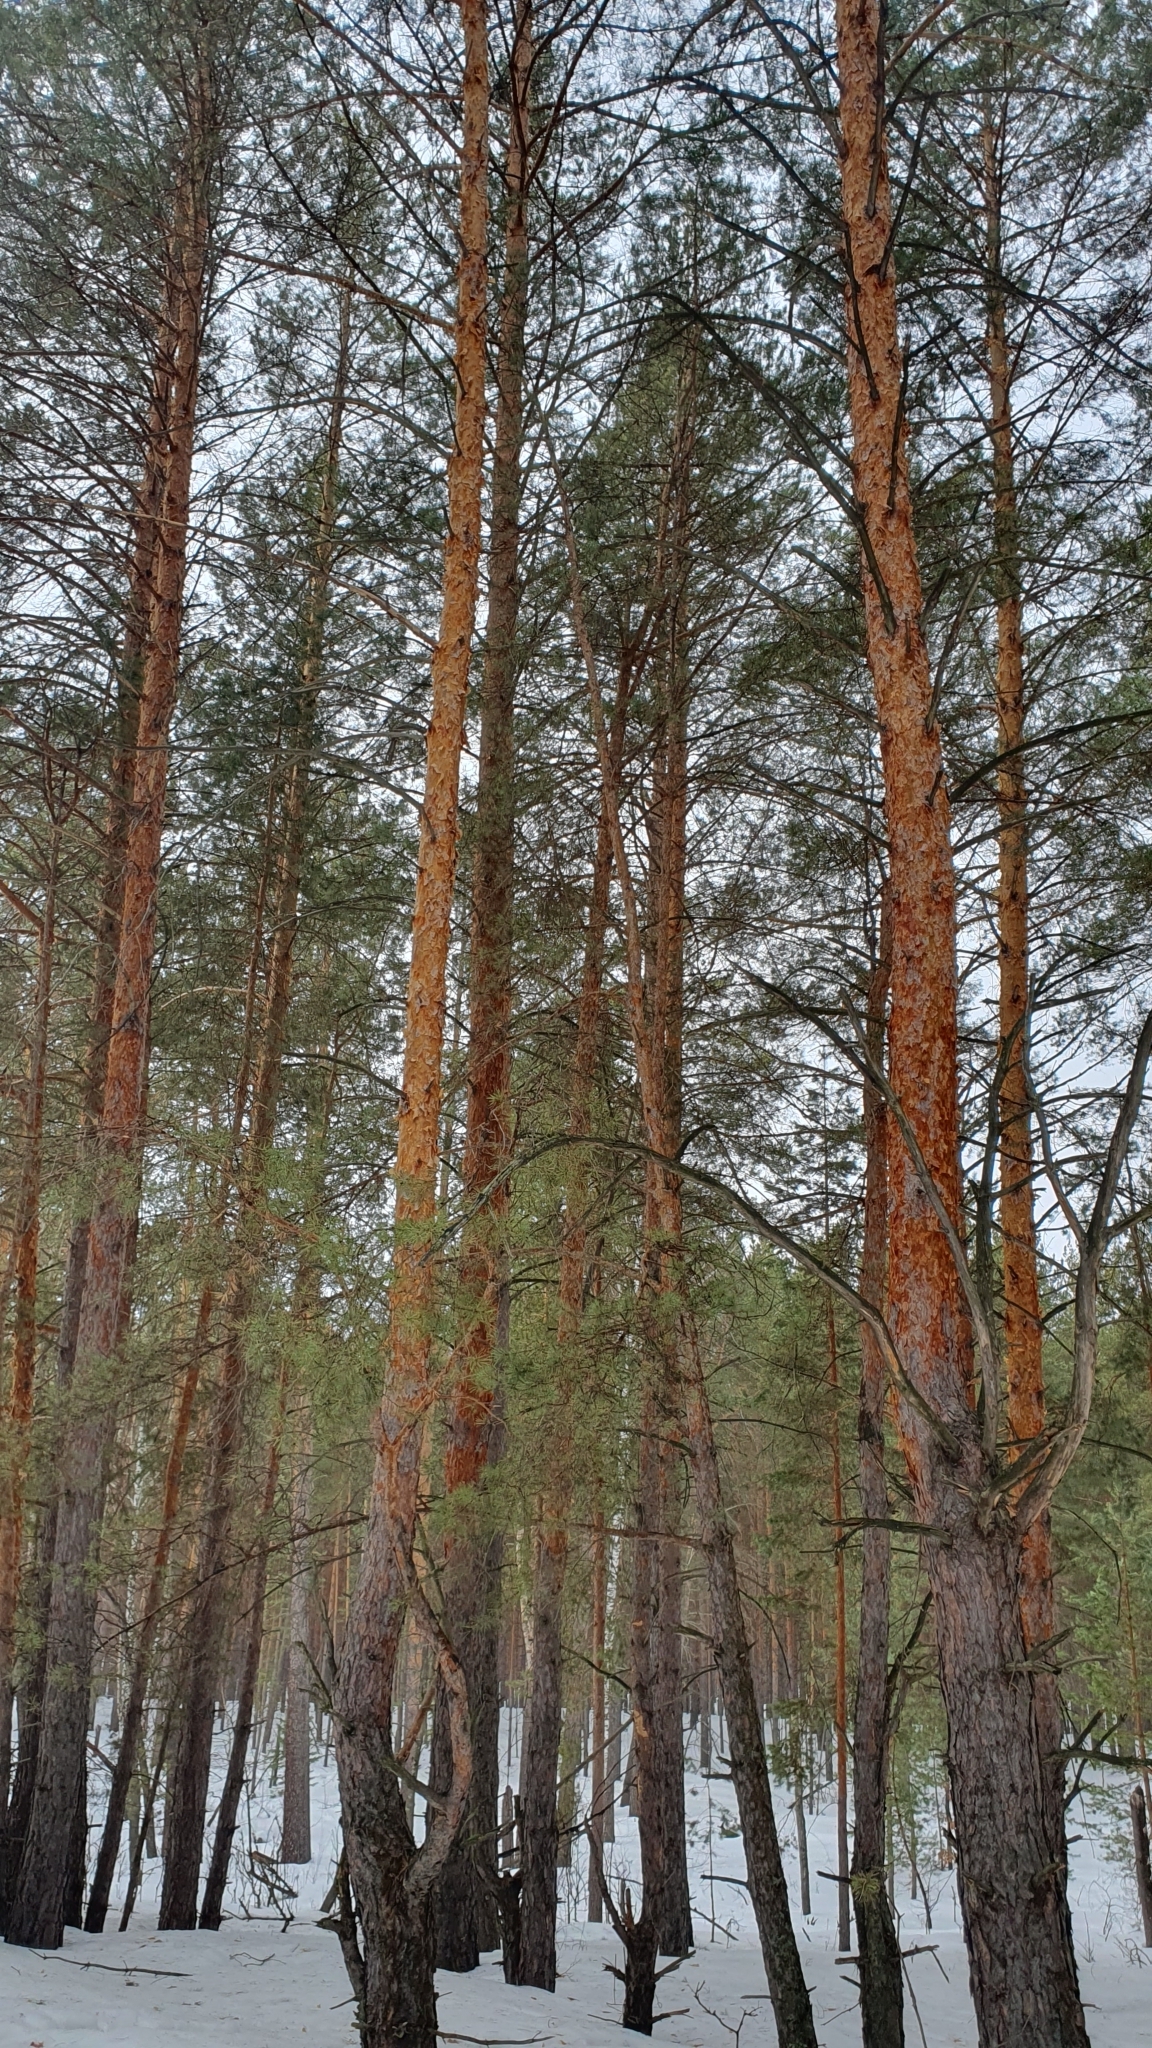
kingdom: Plantae
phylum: Tracheophyta
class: Pinopsida
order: Pinales
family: Pinaceae
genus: Pinus
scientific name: Pinus sylvestris
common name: Scots pine
